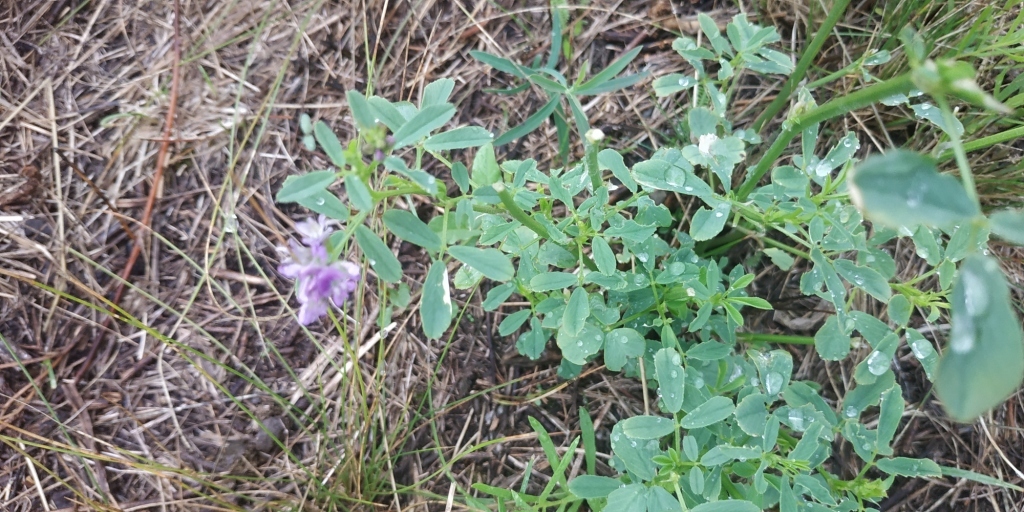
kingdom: Plantae
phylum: Tracheophyta
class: Magnoliopsida
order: Fabales
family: Fabaceae
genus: Medicago
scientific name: Medicago varia
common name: Sand lucerne
